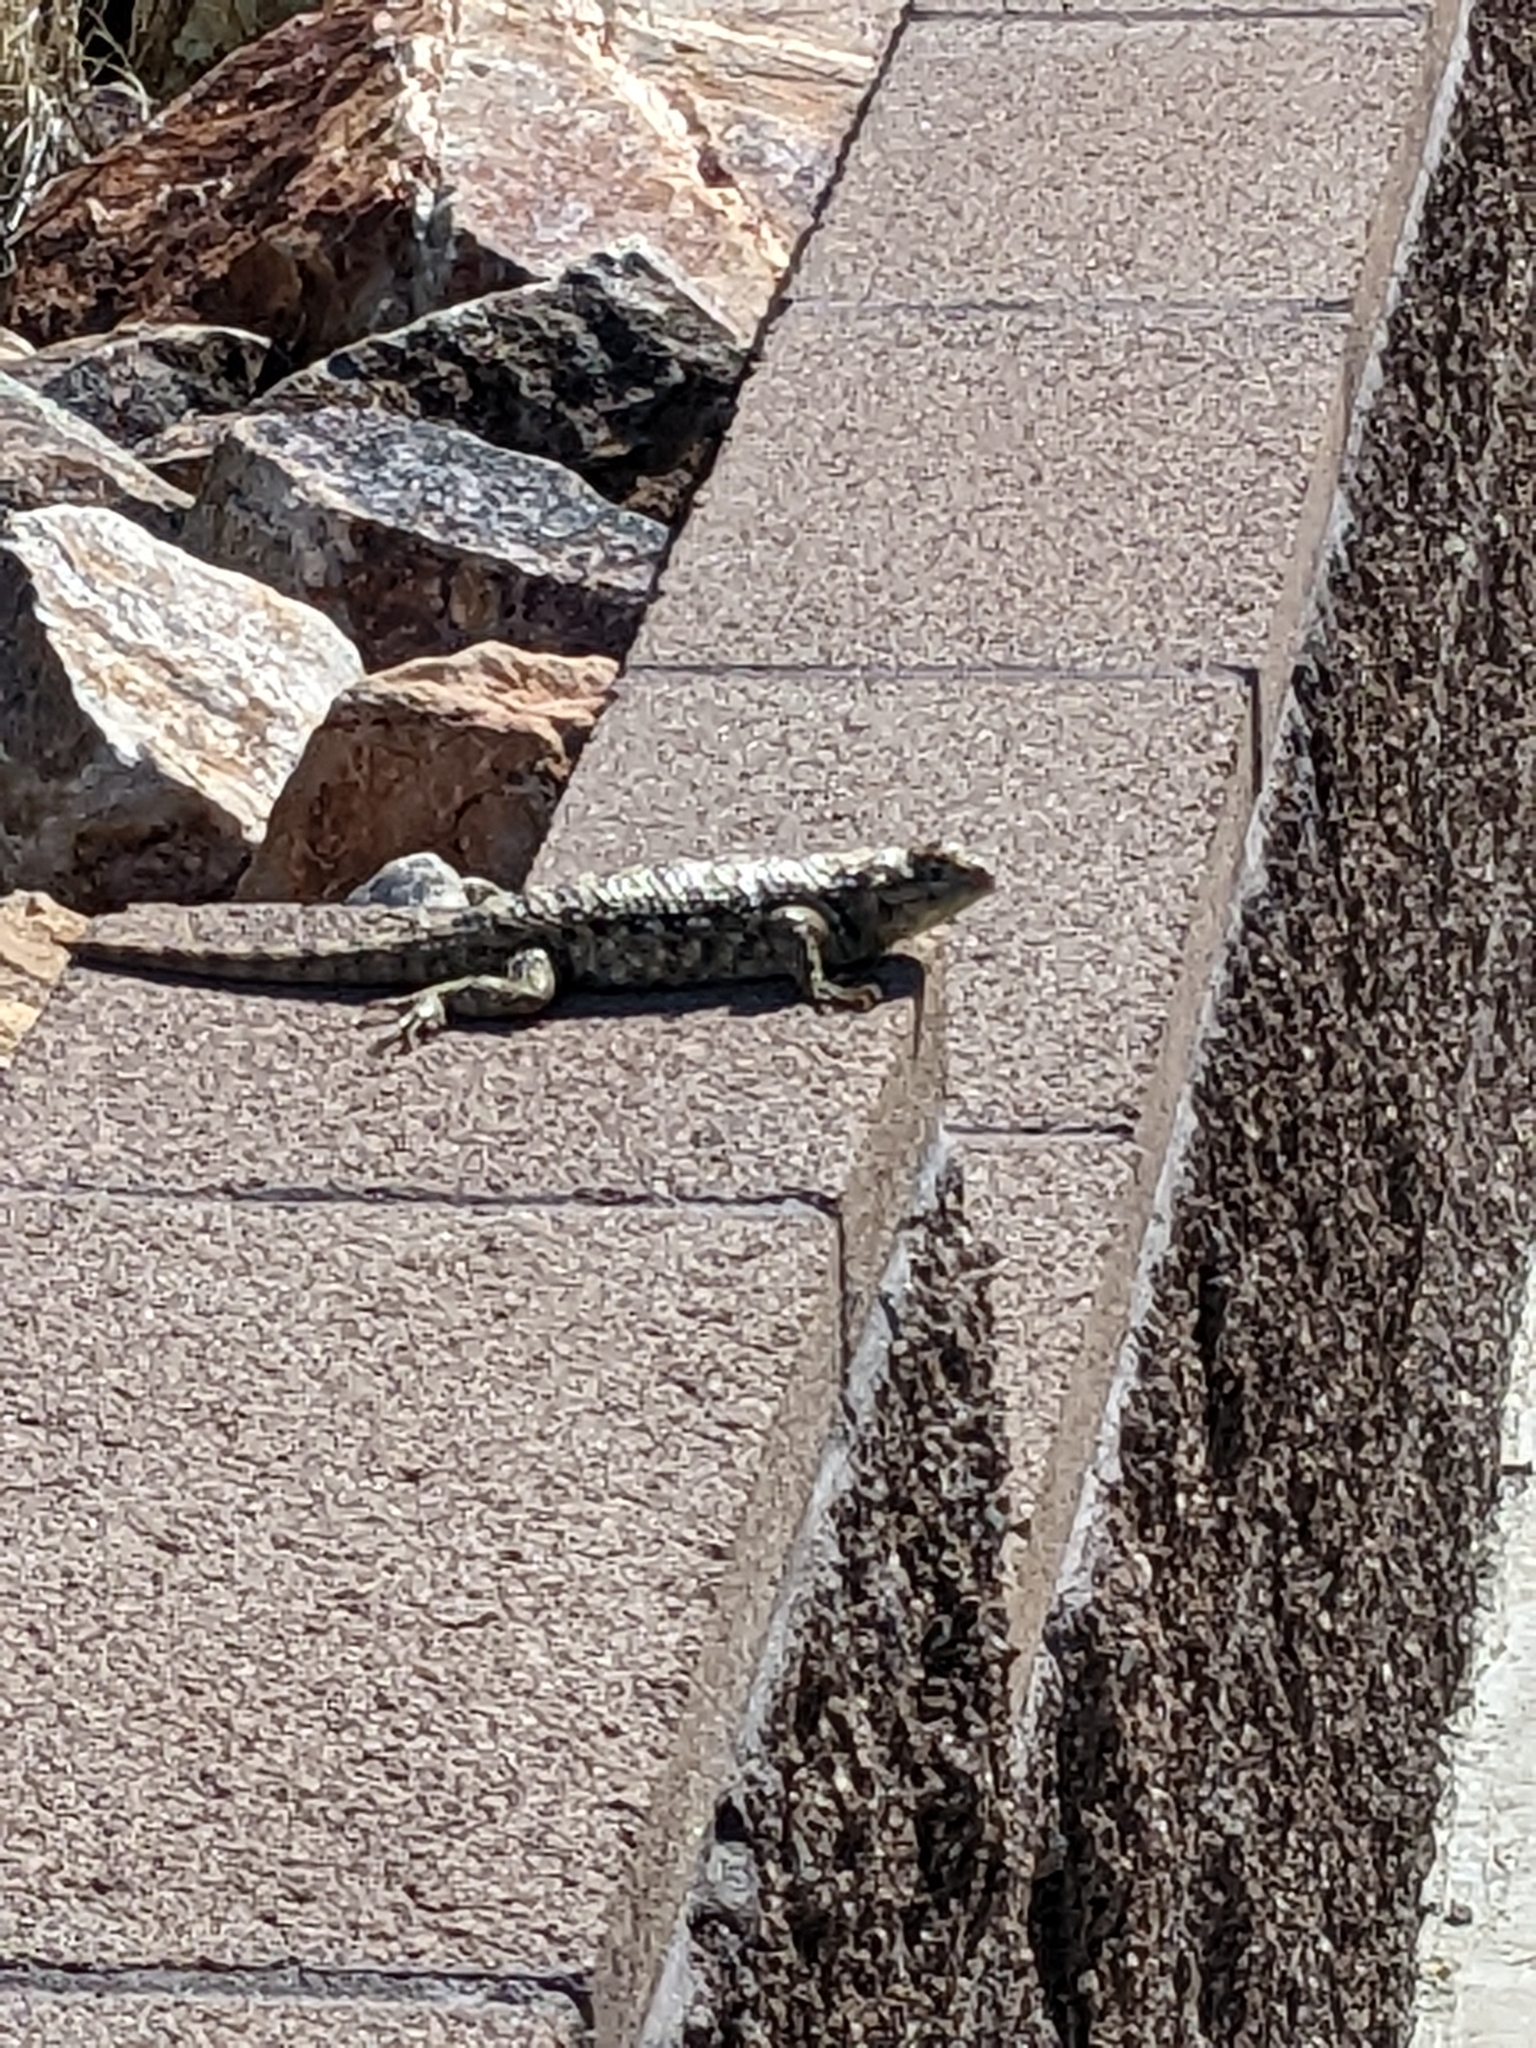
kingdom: Animalia
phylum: Chordata
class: Squamata
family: Phrynosomatidae
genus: Sceloporus
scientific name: Sceloporus magister
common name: Desert spiny lizard
